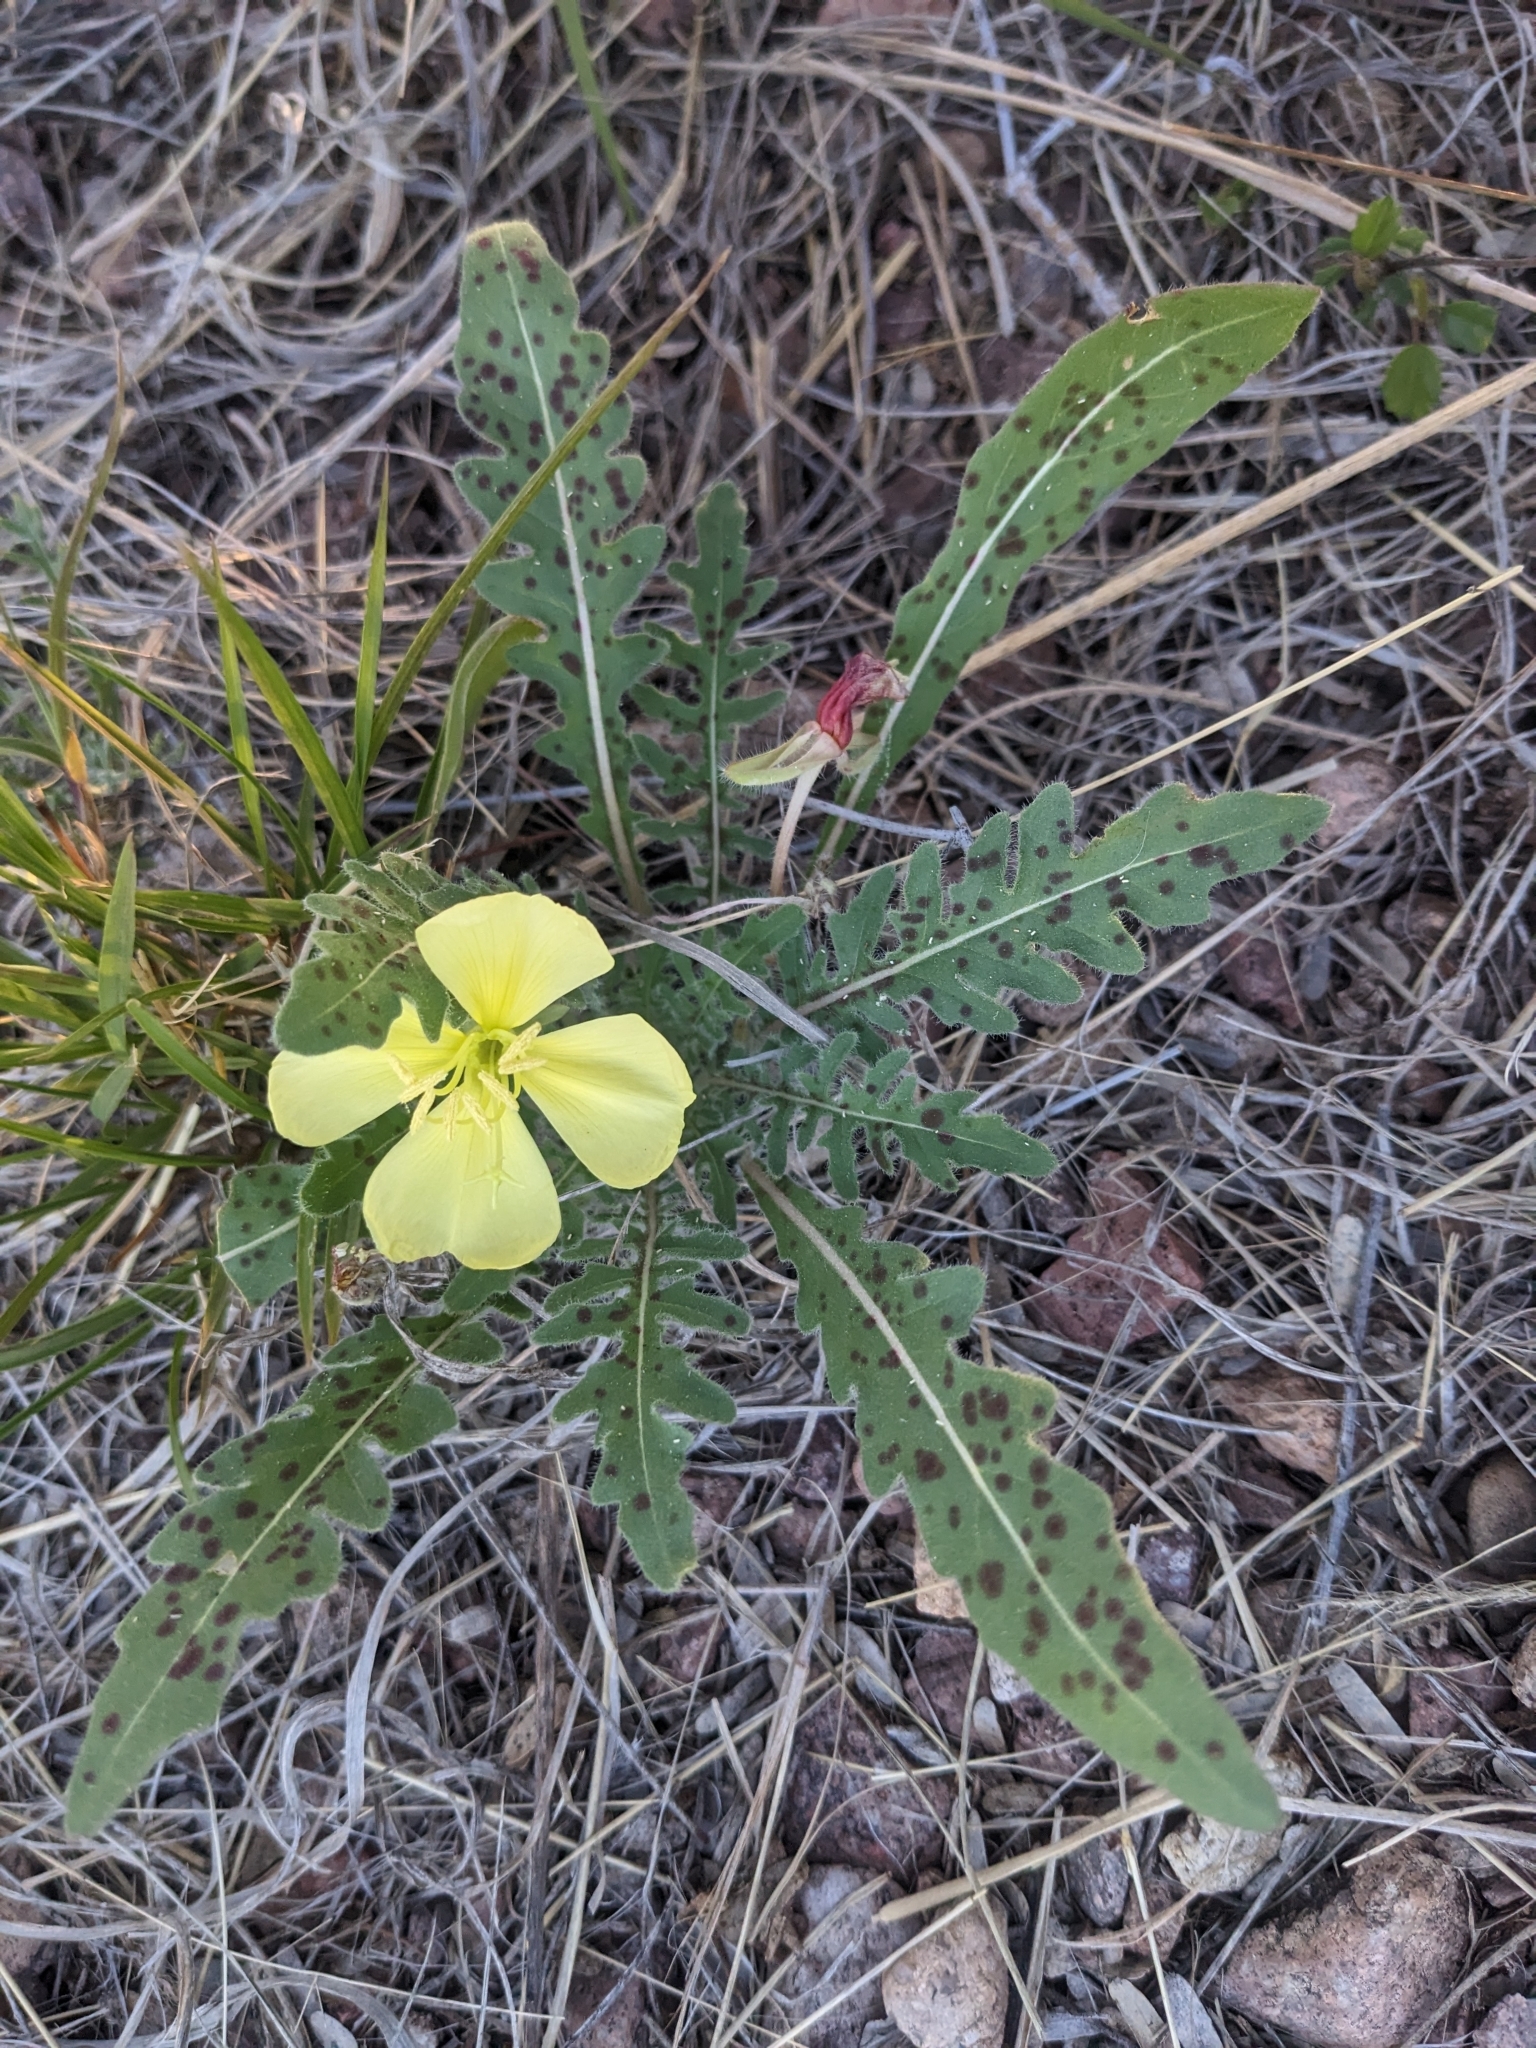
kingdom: Plantae
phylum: Tracheophyta
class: Magnoliopsida
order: Myrtales
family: Onagraceae
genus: Oenothera
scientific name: Oenothera primiveris
